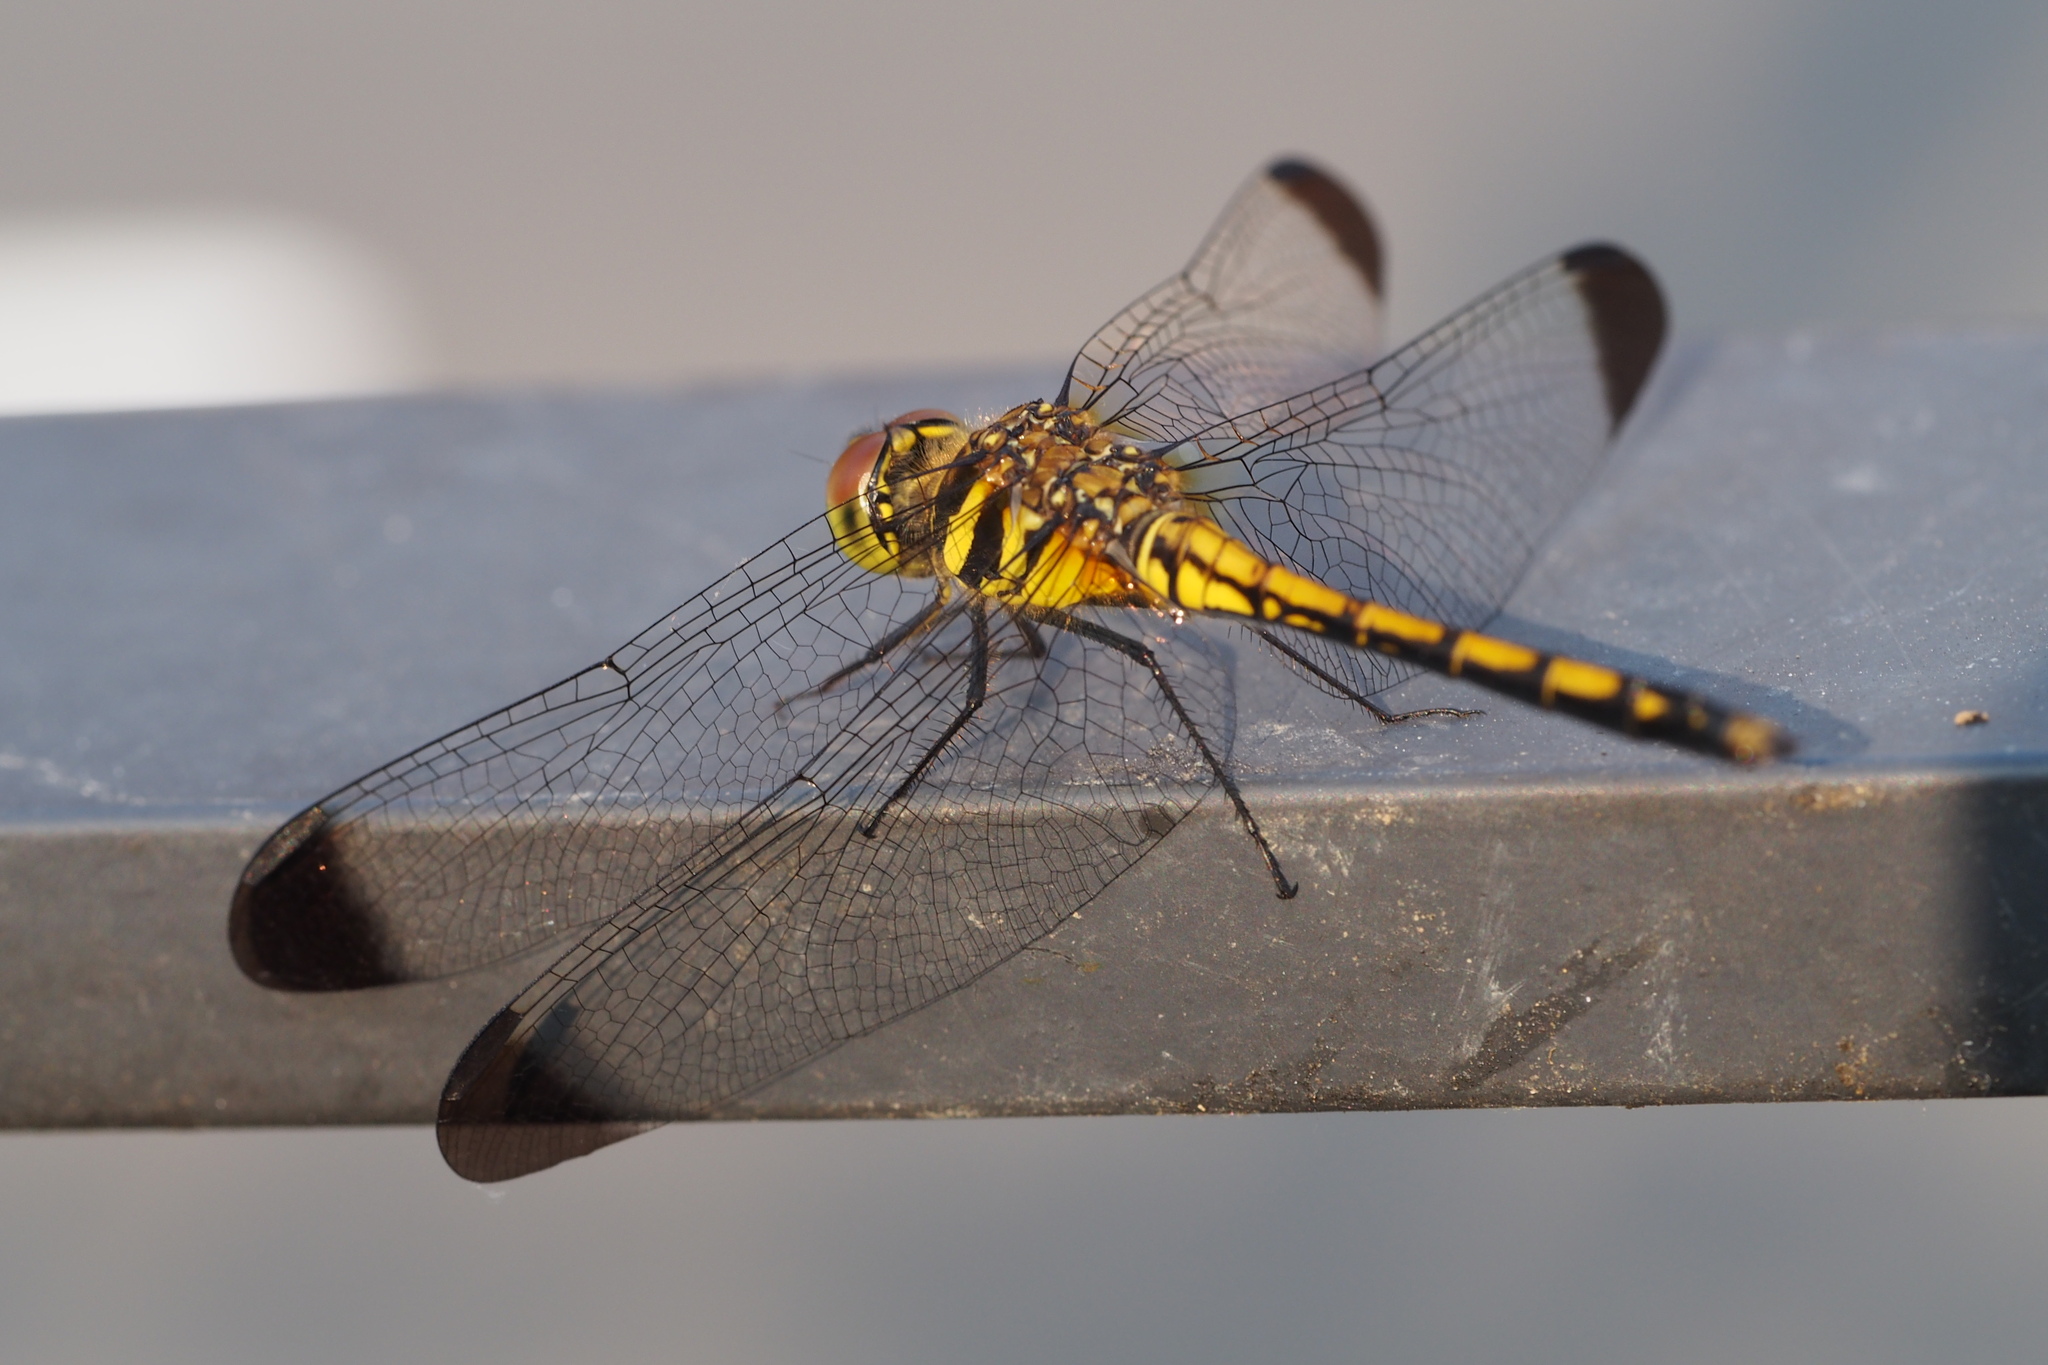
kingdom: Animalia
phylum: Arthropoda
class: Insecta
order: Odonata
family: Libellulidae
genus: Sympetrum
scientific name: Sympetrum infuscatum
